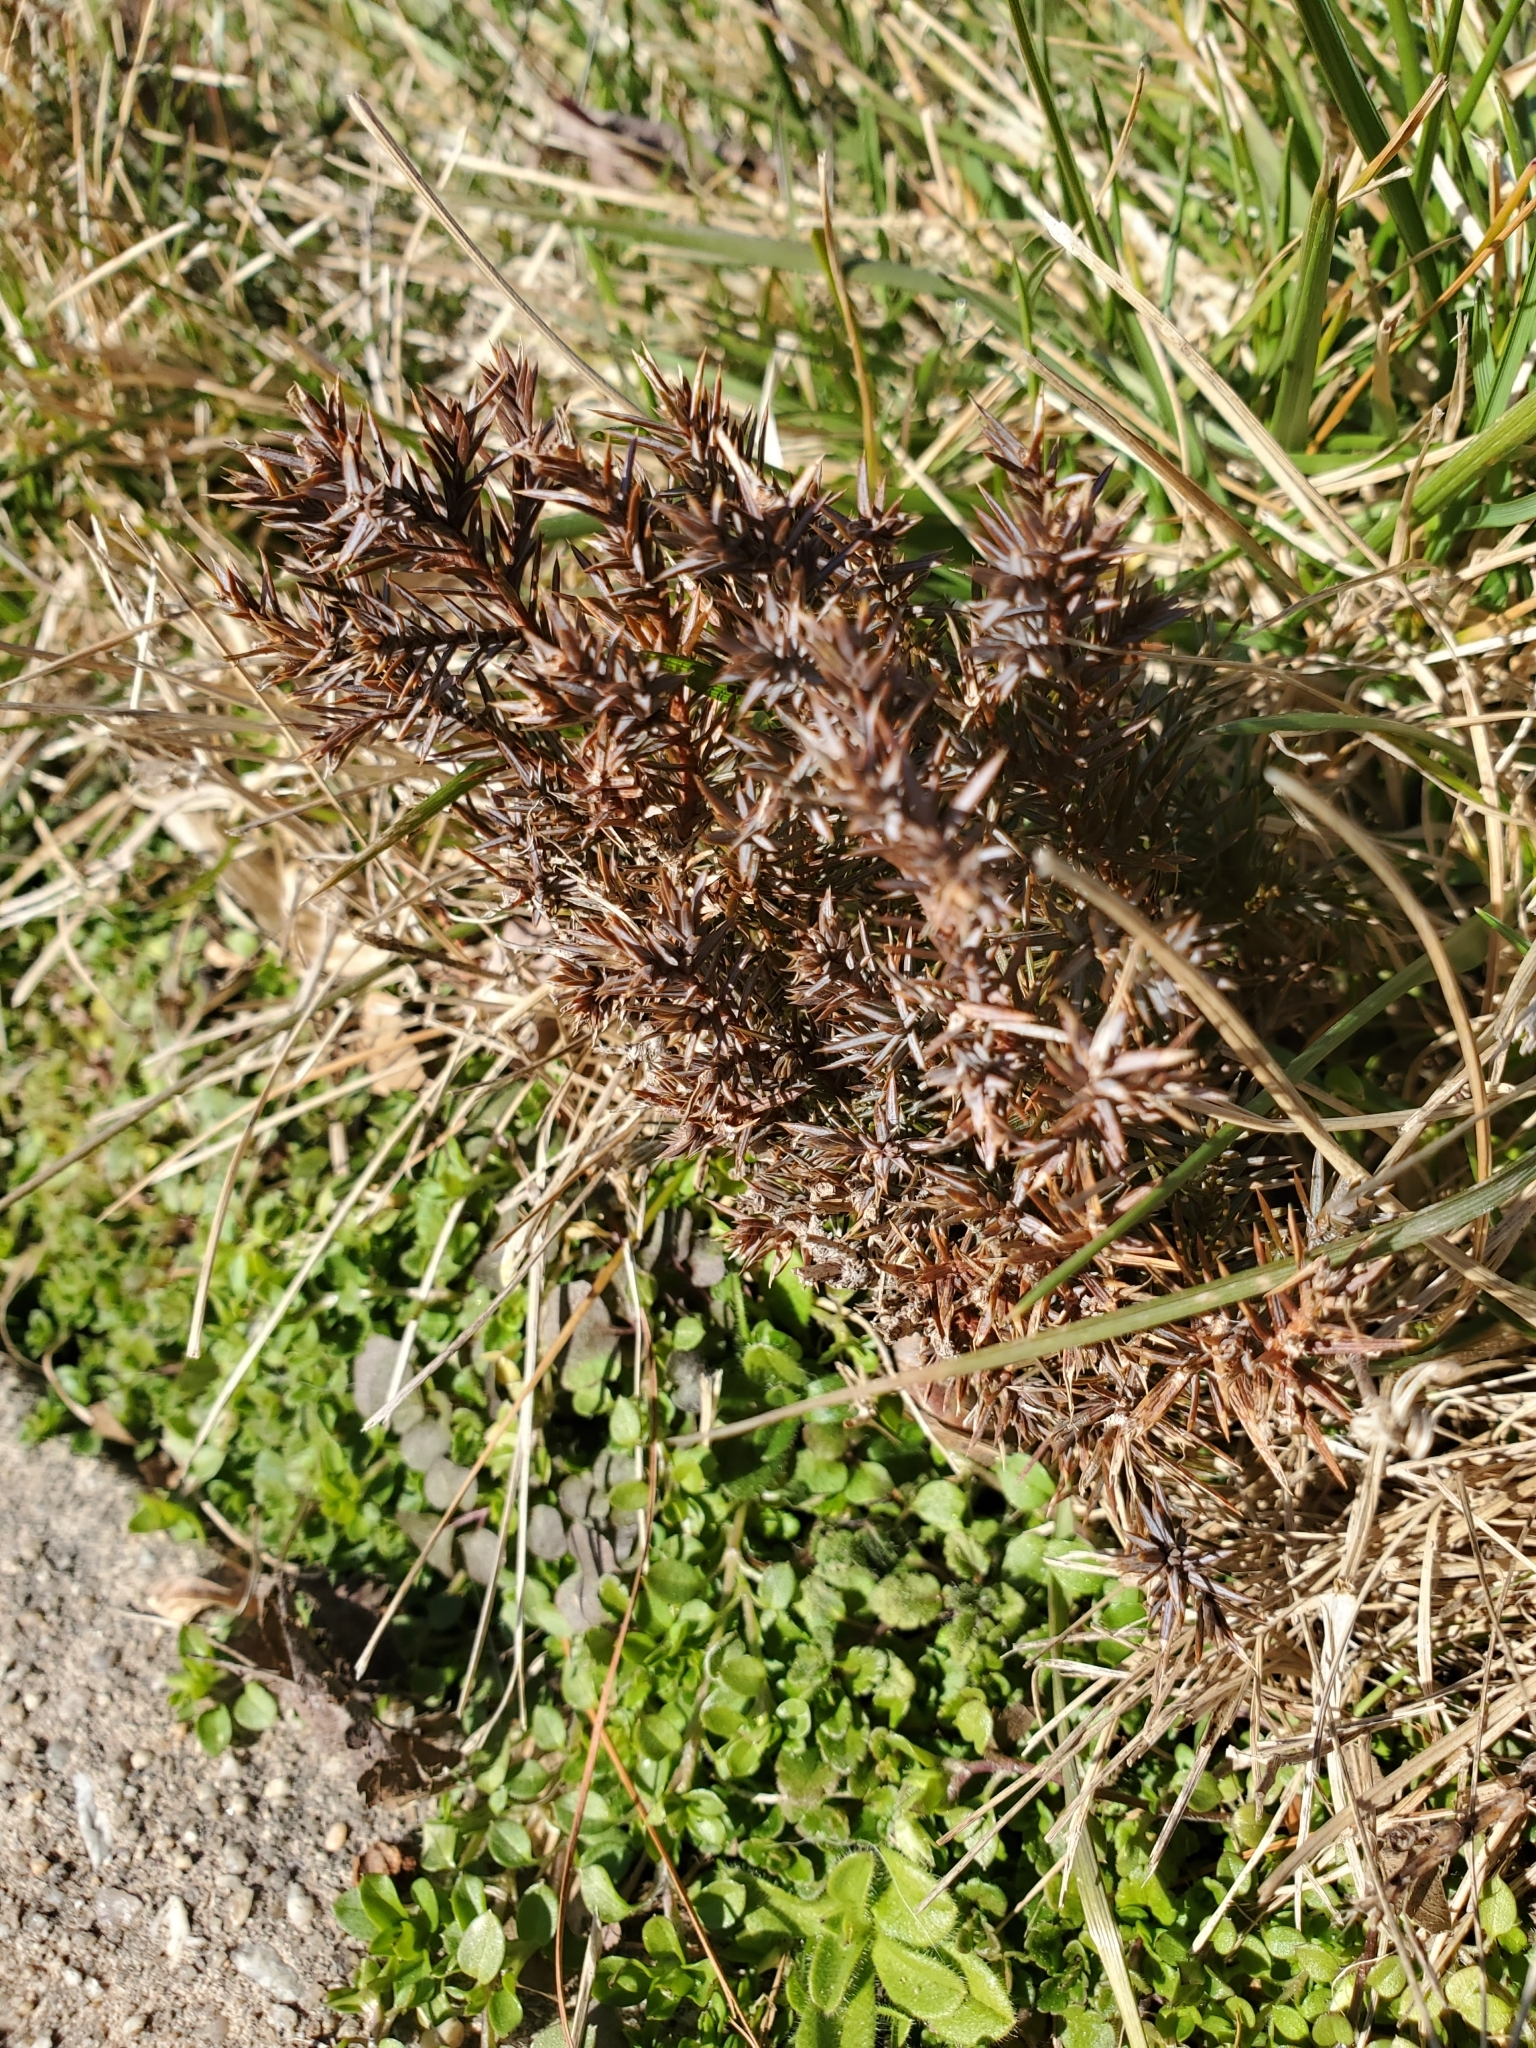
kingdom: Plantae
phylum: Tracheophyta
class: Pinopsida
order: Pinales
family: Cupressaceae
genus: Juniperus
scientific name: Juniperus virginiana
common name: Red juniper
